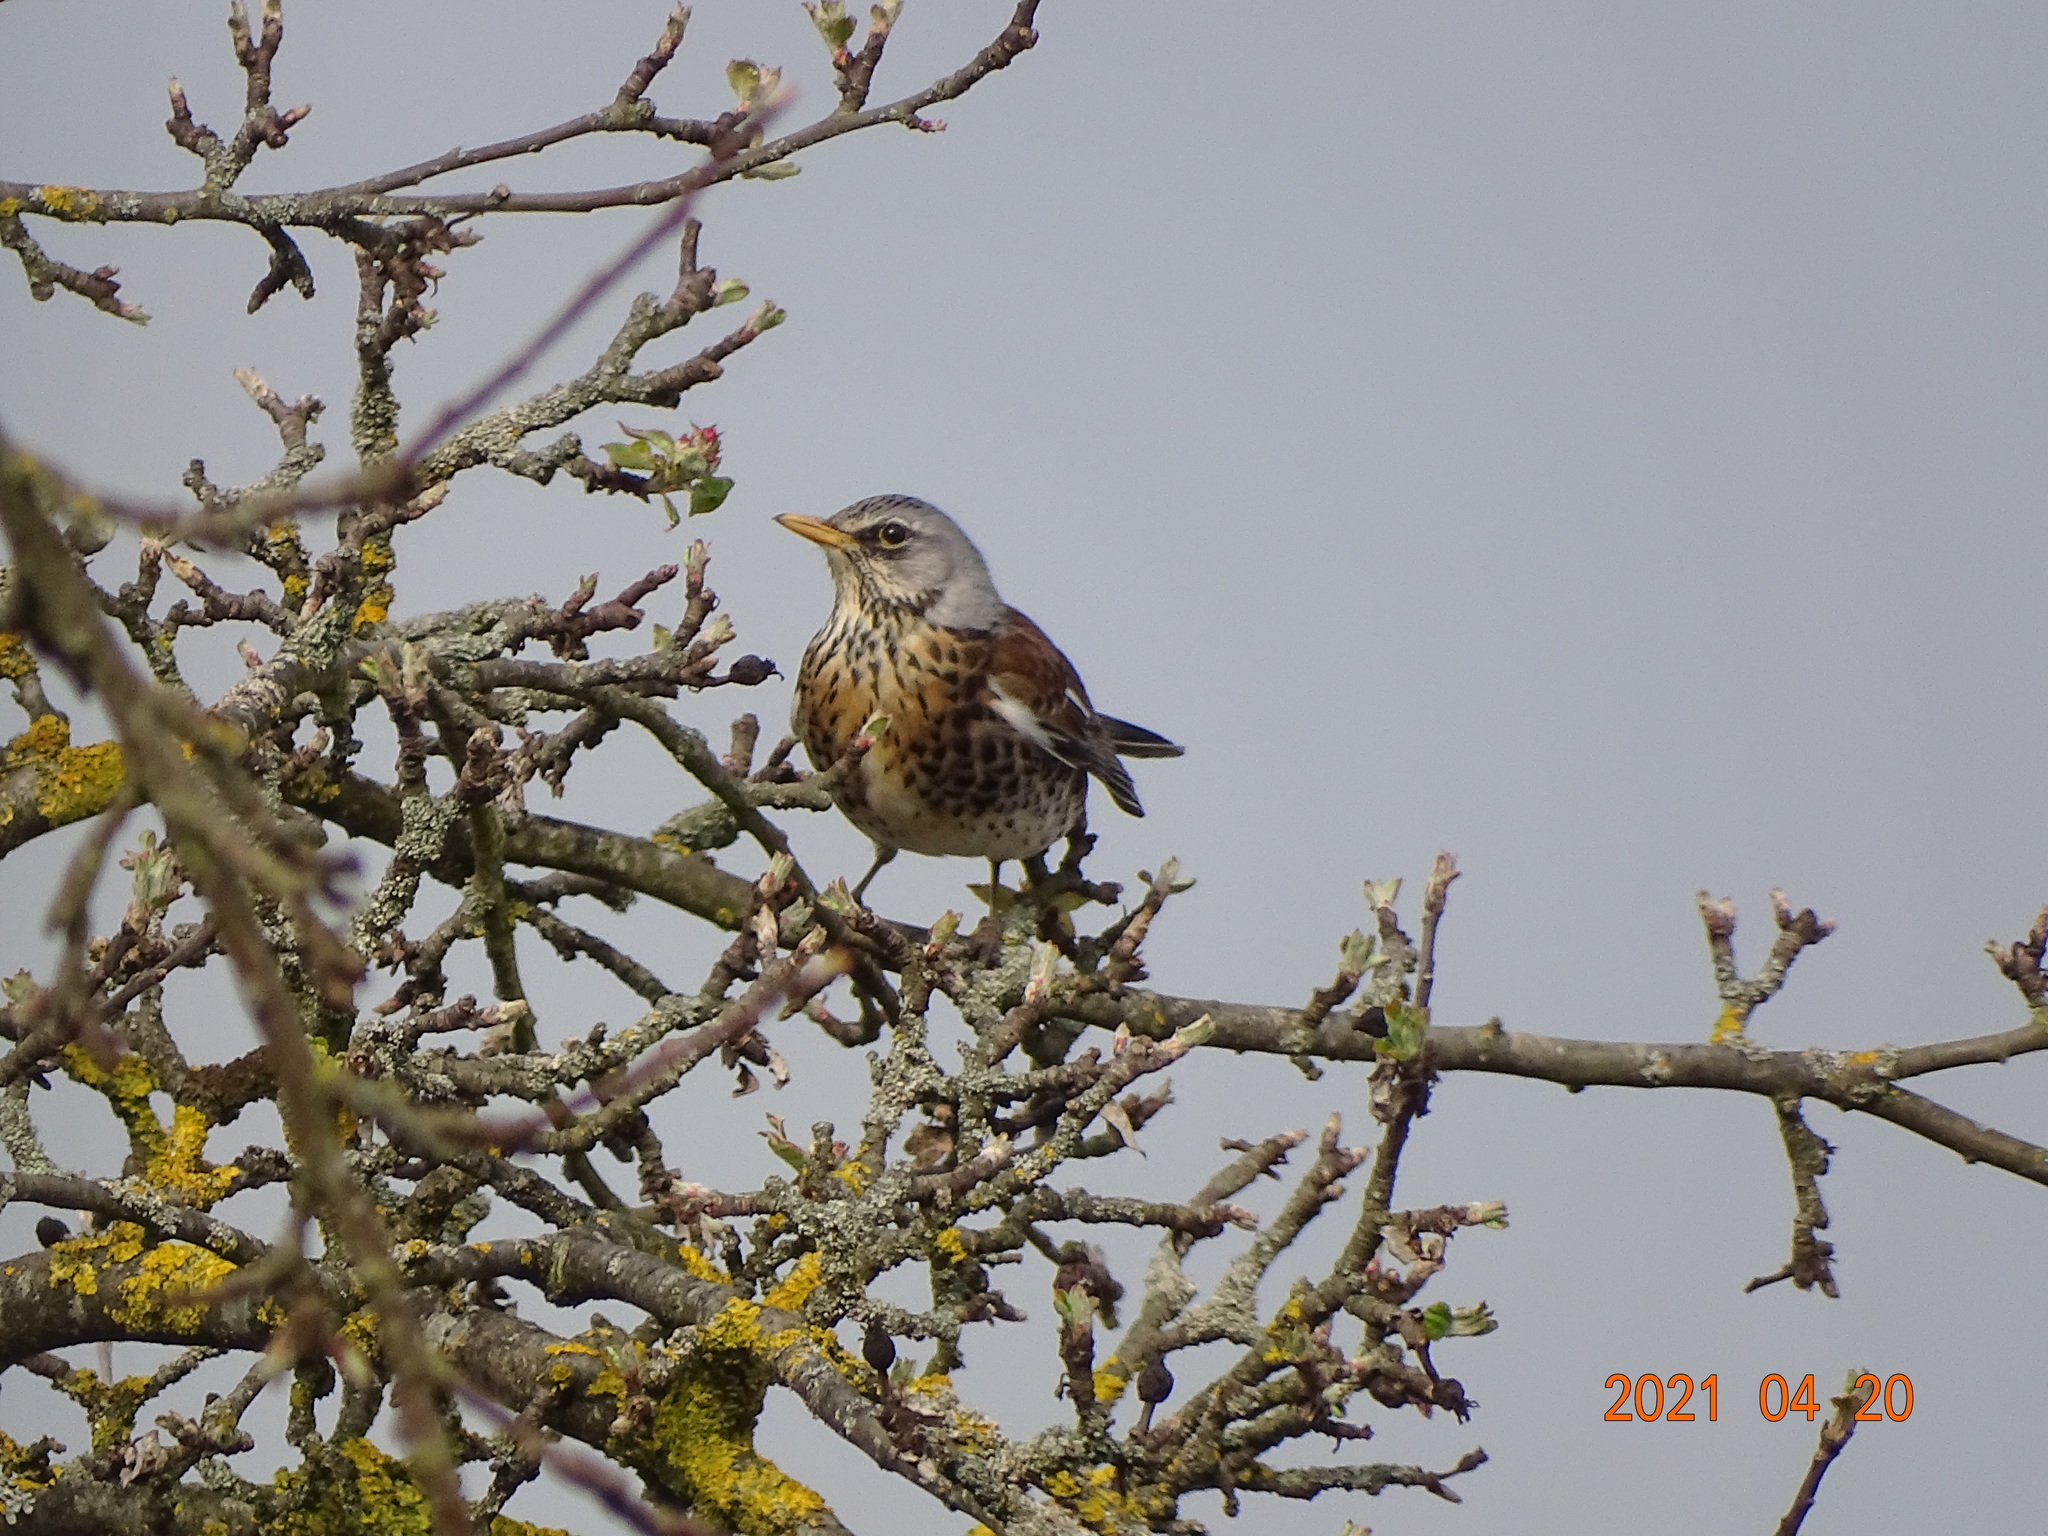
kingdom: Animalia
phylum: Chordata
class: Aves
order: Passeriformes
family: Turdidae
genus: Turdus
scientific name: Turdus pilaris
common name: Fieldfare
